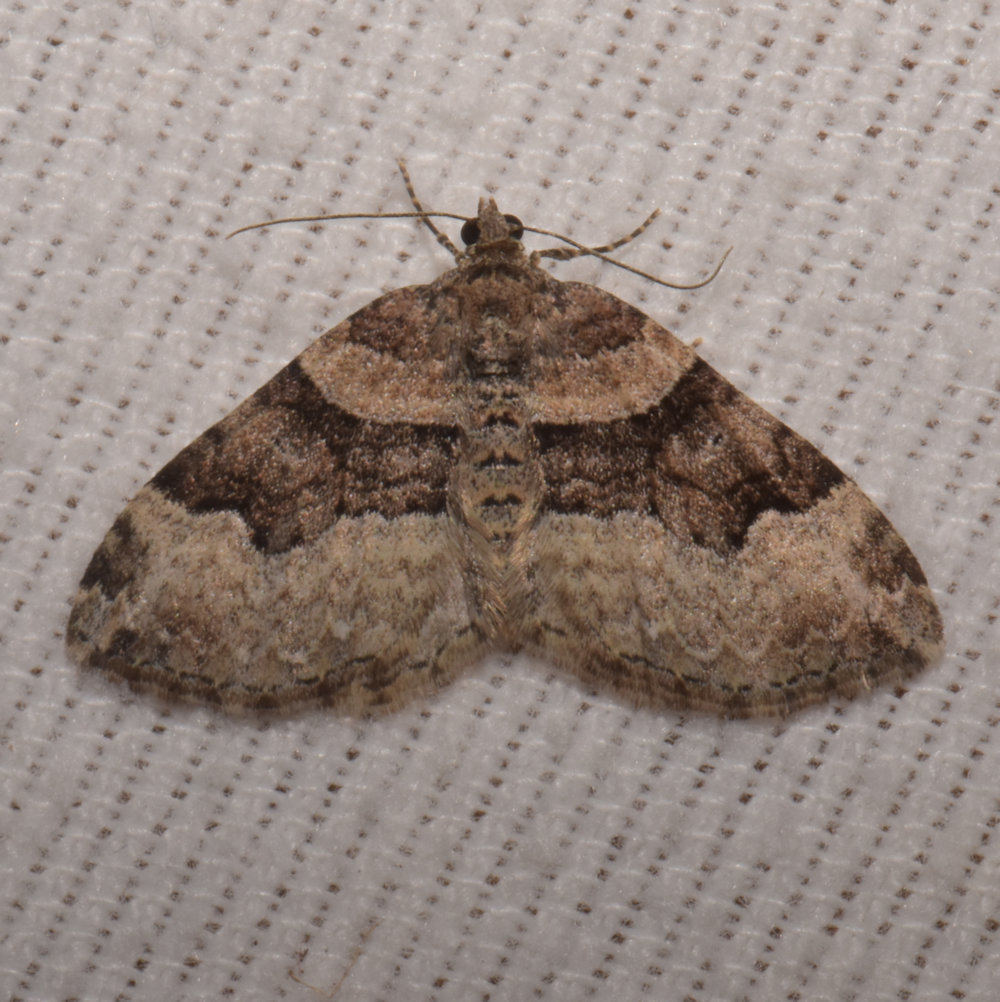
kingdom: Animalia
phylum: Arthropoda
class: Insecta
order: Lepidoptera
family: Geometridae
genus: Xanthorhoe
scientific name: Xanthorhoe lacustrata
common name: Toothed brown carpet
